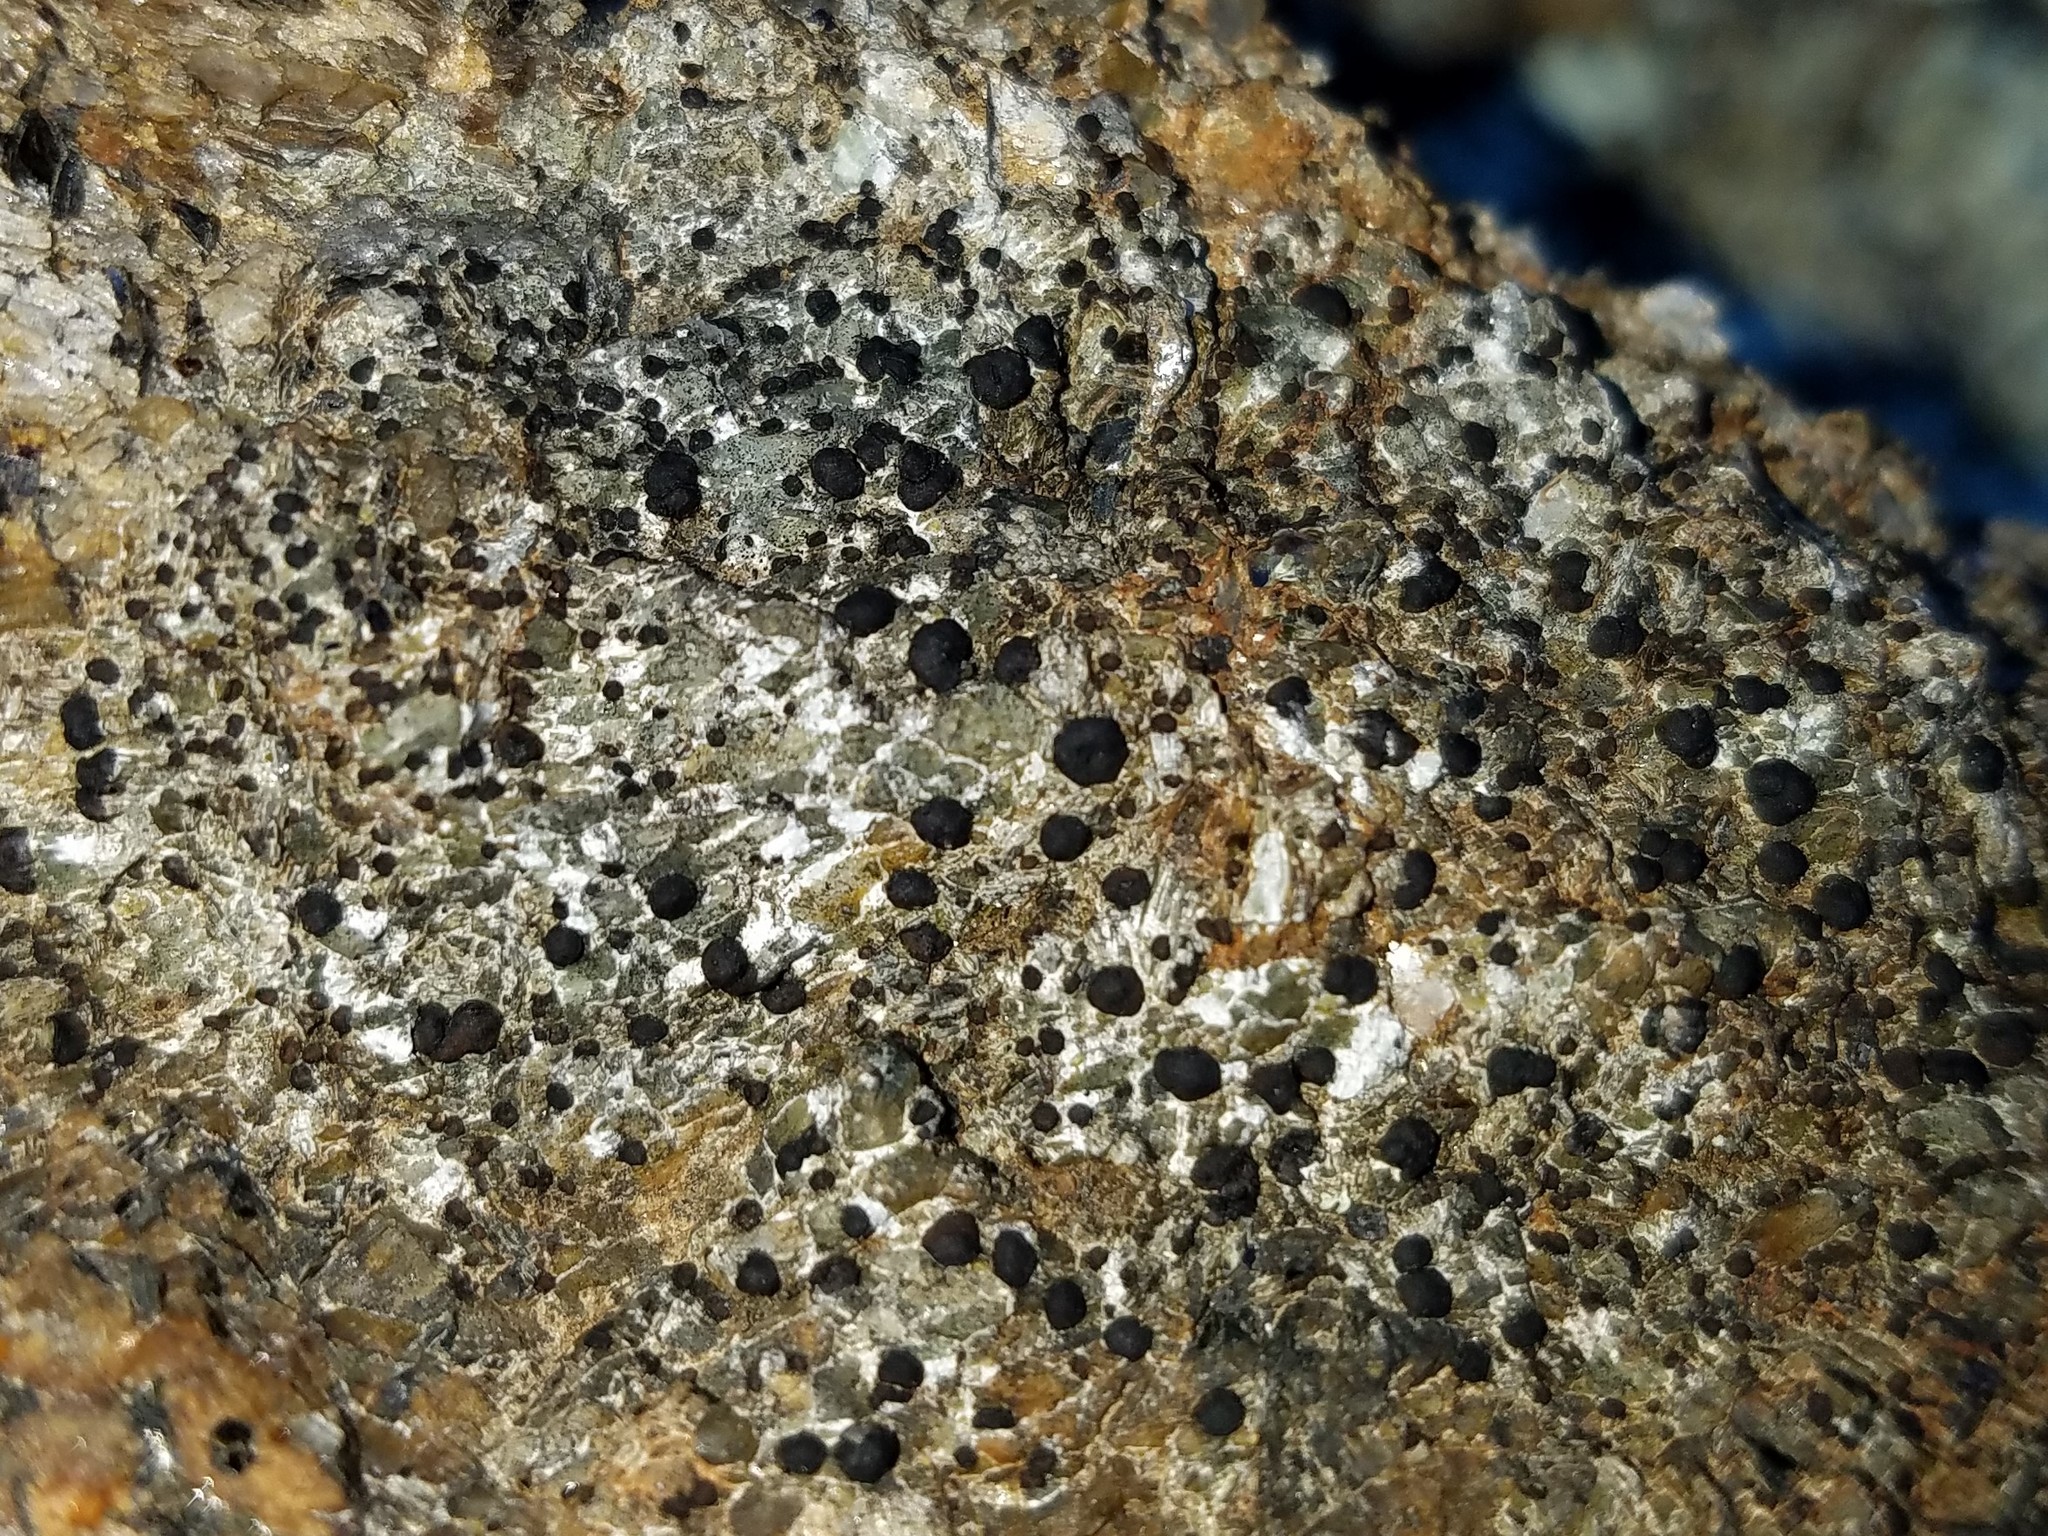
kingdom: Fungi
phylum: Ascomycota
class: Lecanoromycetes
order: Lecideales
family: Lecideaceae
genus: Porpidia
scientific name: Porpidia subsimplex
